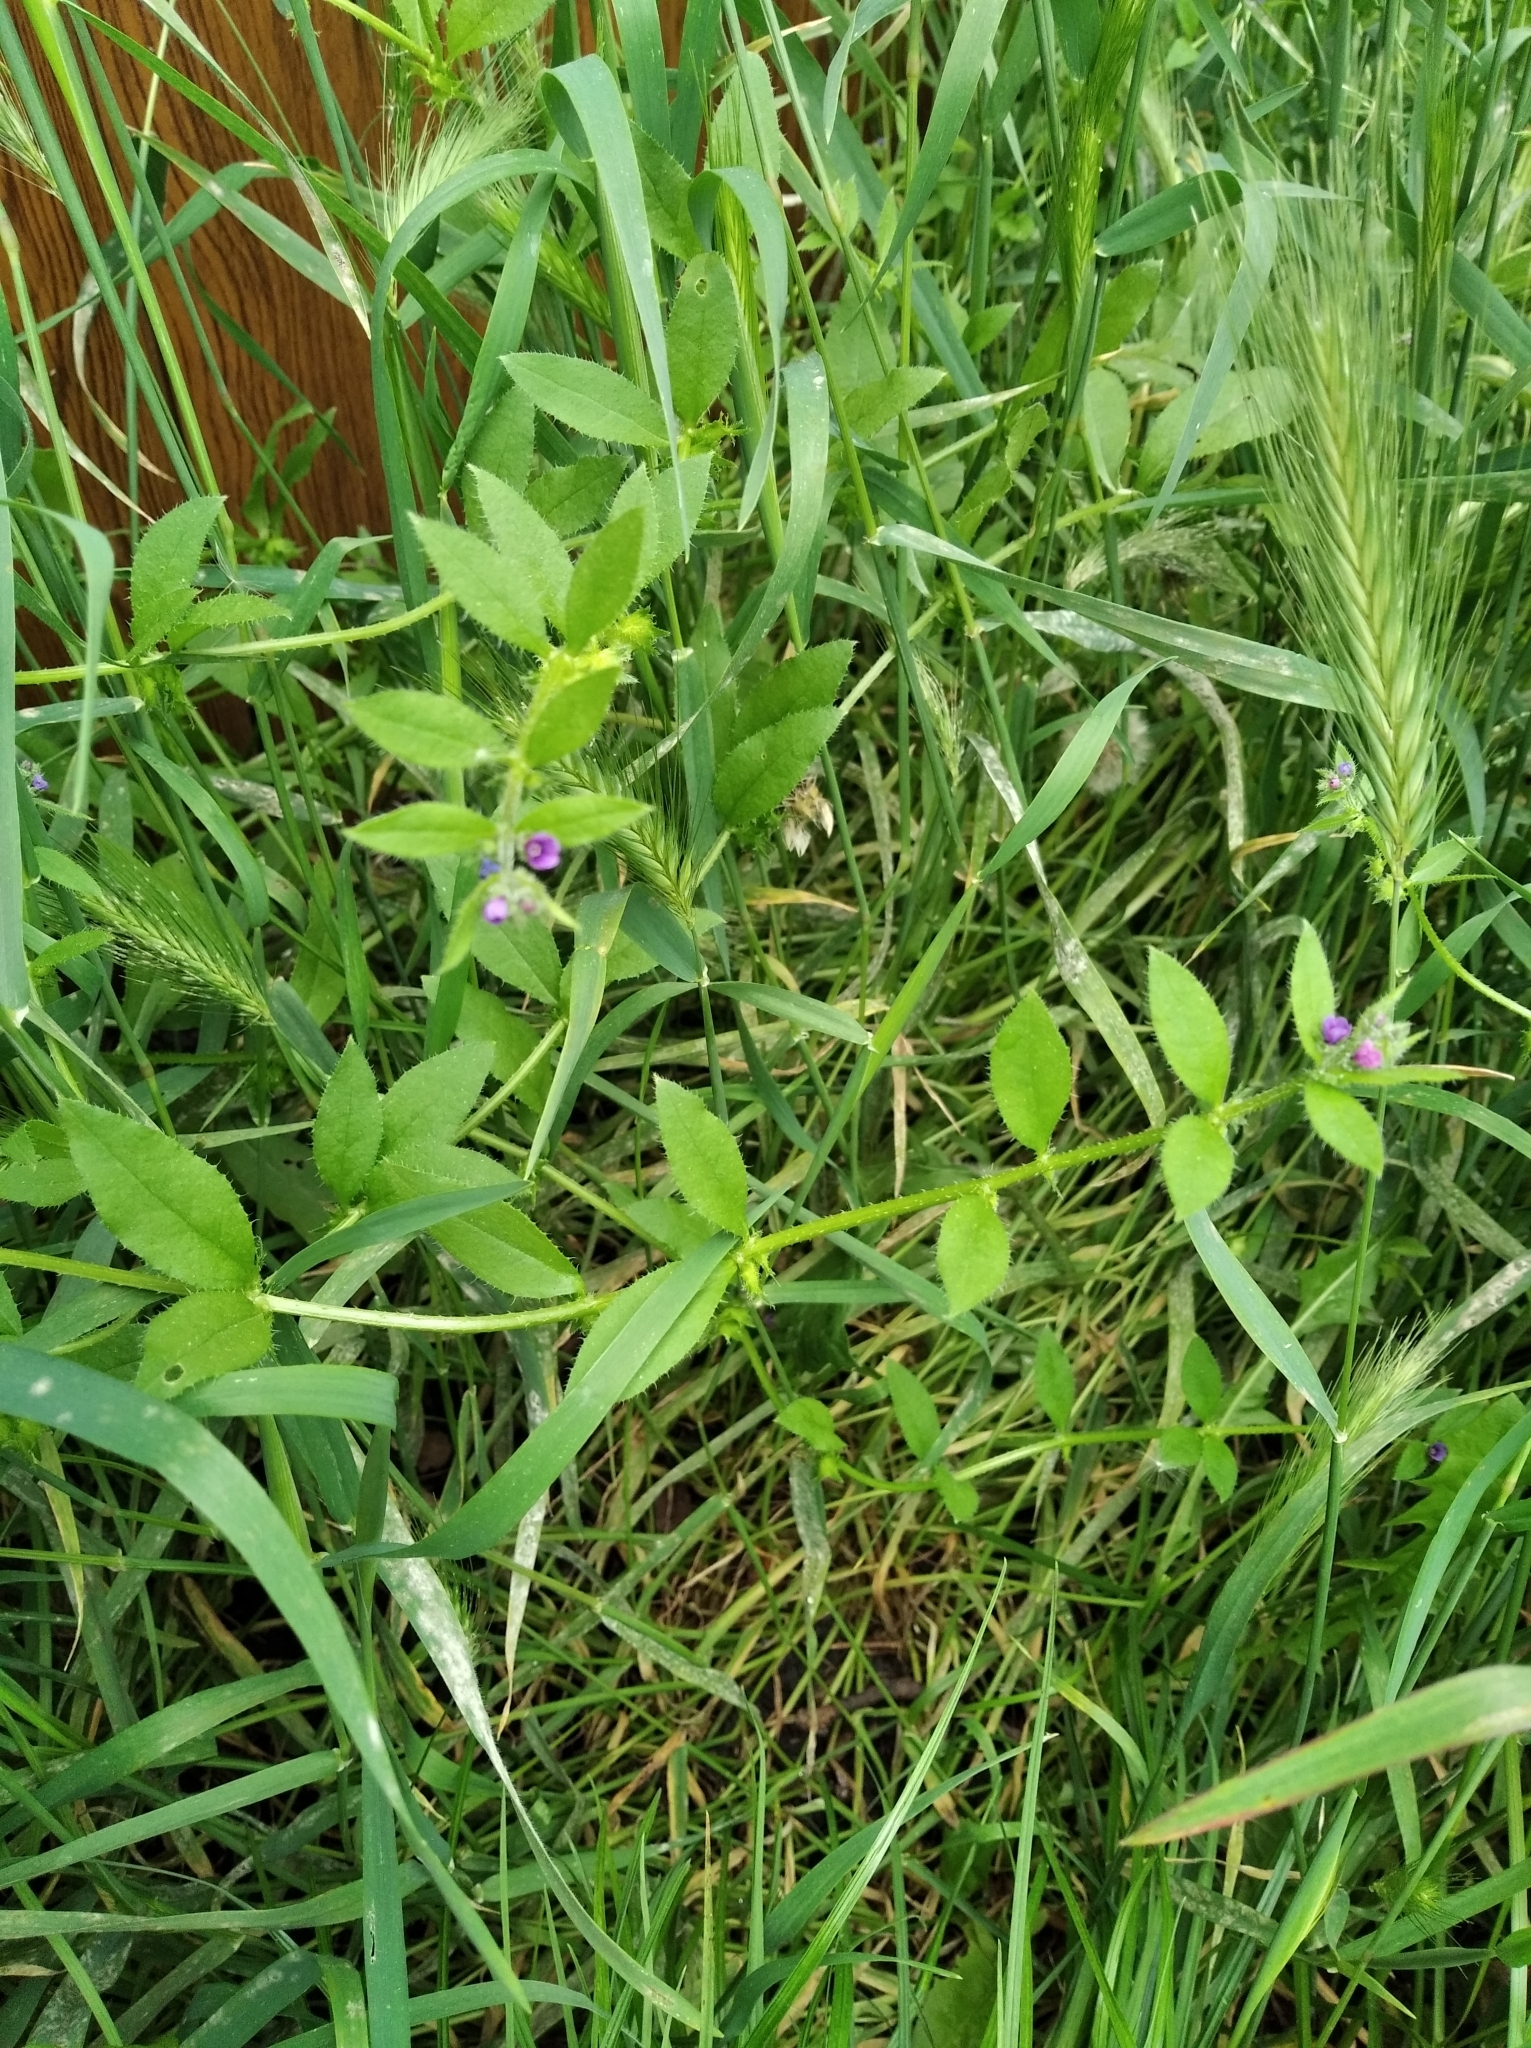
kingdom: Plantae
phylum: Tracheophyta
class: Magnoliopsida
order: Boraginales
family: Boraginaceae
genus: Asperugo
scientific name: Asperugo procumbens
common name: Madwort
